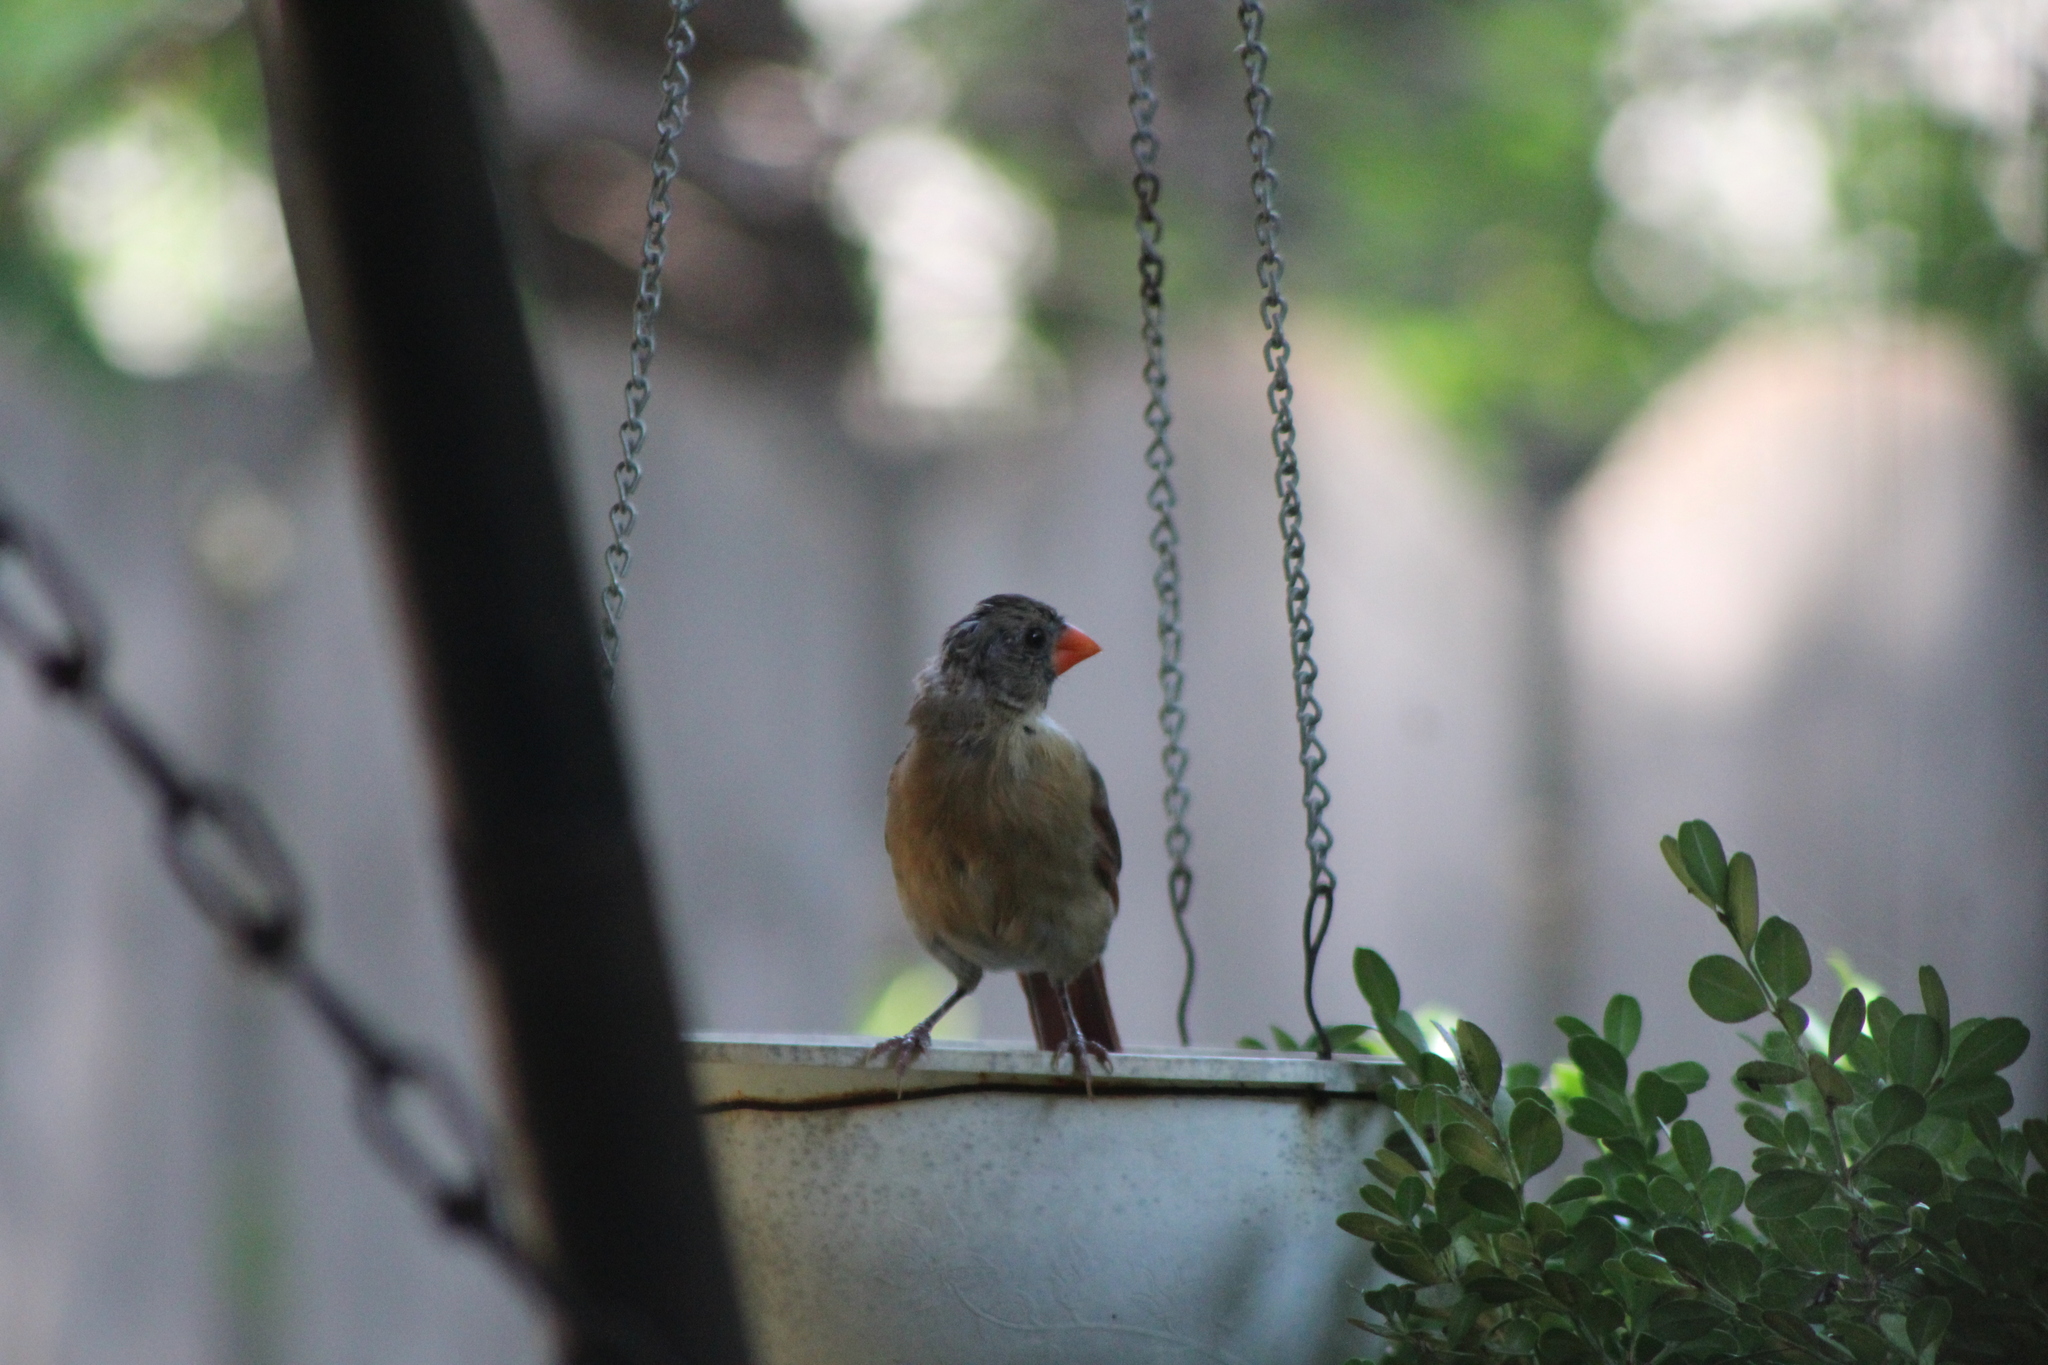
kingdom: Animalia
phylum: Chordata
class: Aves
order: Passeriformes
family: Cardinalidae
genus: Cardinalis
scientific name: Cardinalis cardinalis
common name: Northern cardinal
